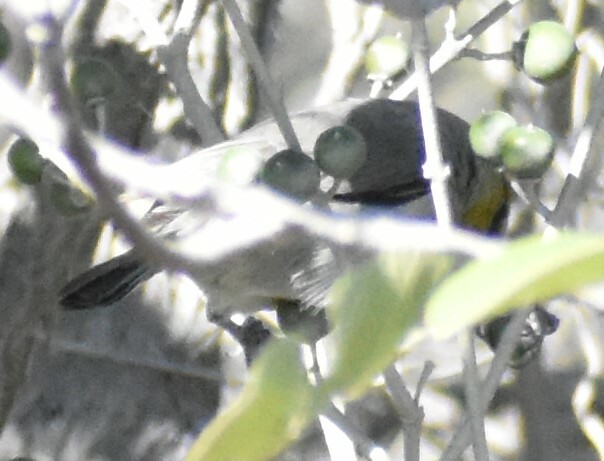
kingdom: Animalia
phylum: Chordata
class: Aves
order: Passeriformes
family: Remizidae
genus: Auriparus
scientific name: Auriparus flaviceps
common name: Verdin
